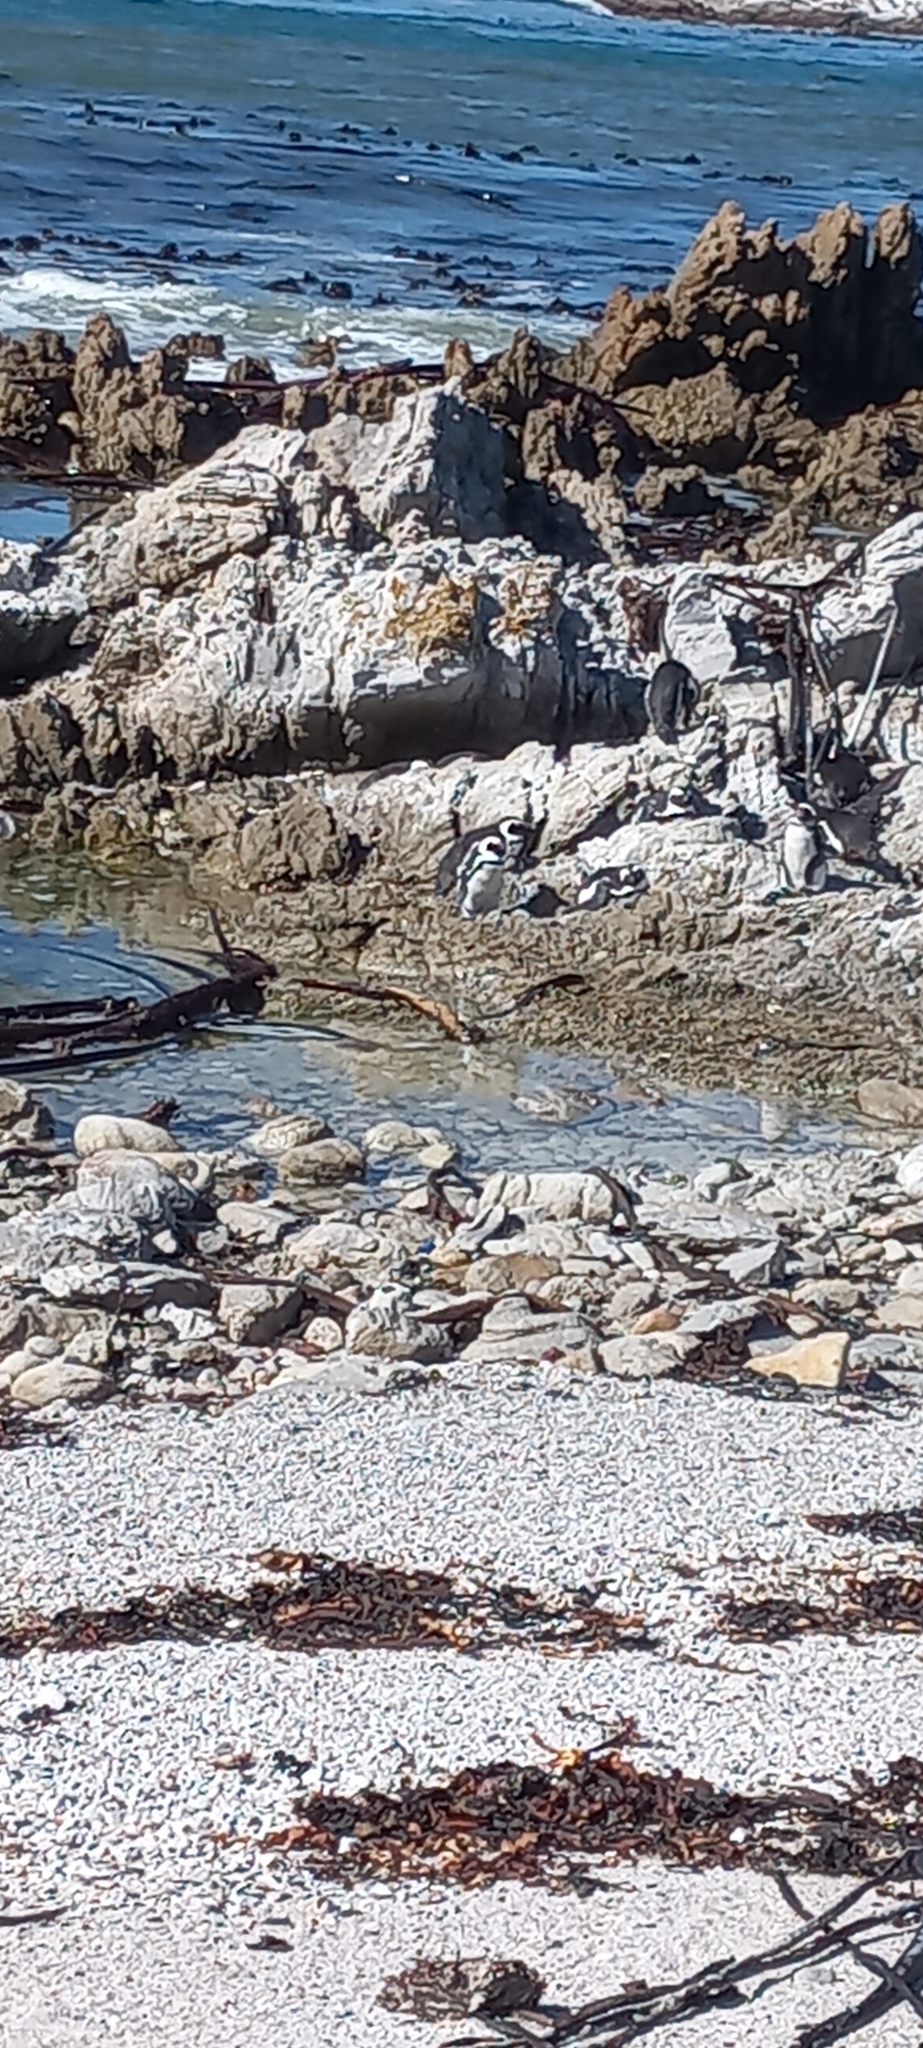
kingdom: Animalia
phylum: Chordata
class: Aves
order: Sphenisciformes
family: Spheniscidae
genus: Spheniscus
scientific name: Spheniscus demersus
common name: African penguin
